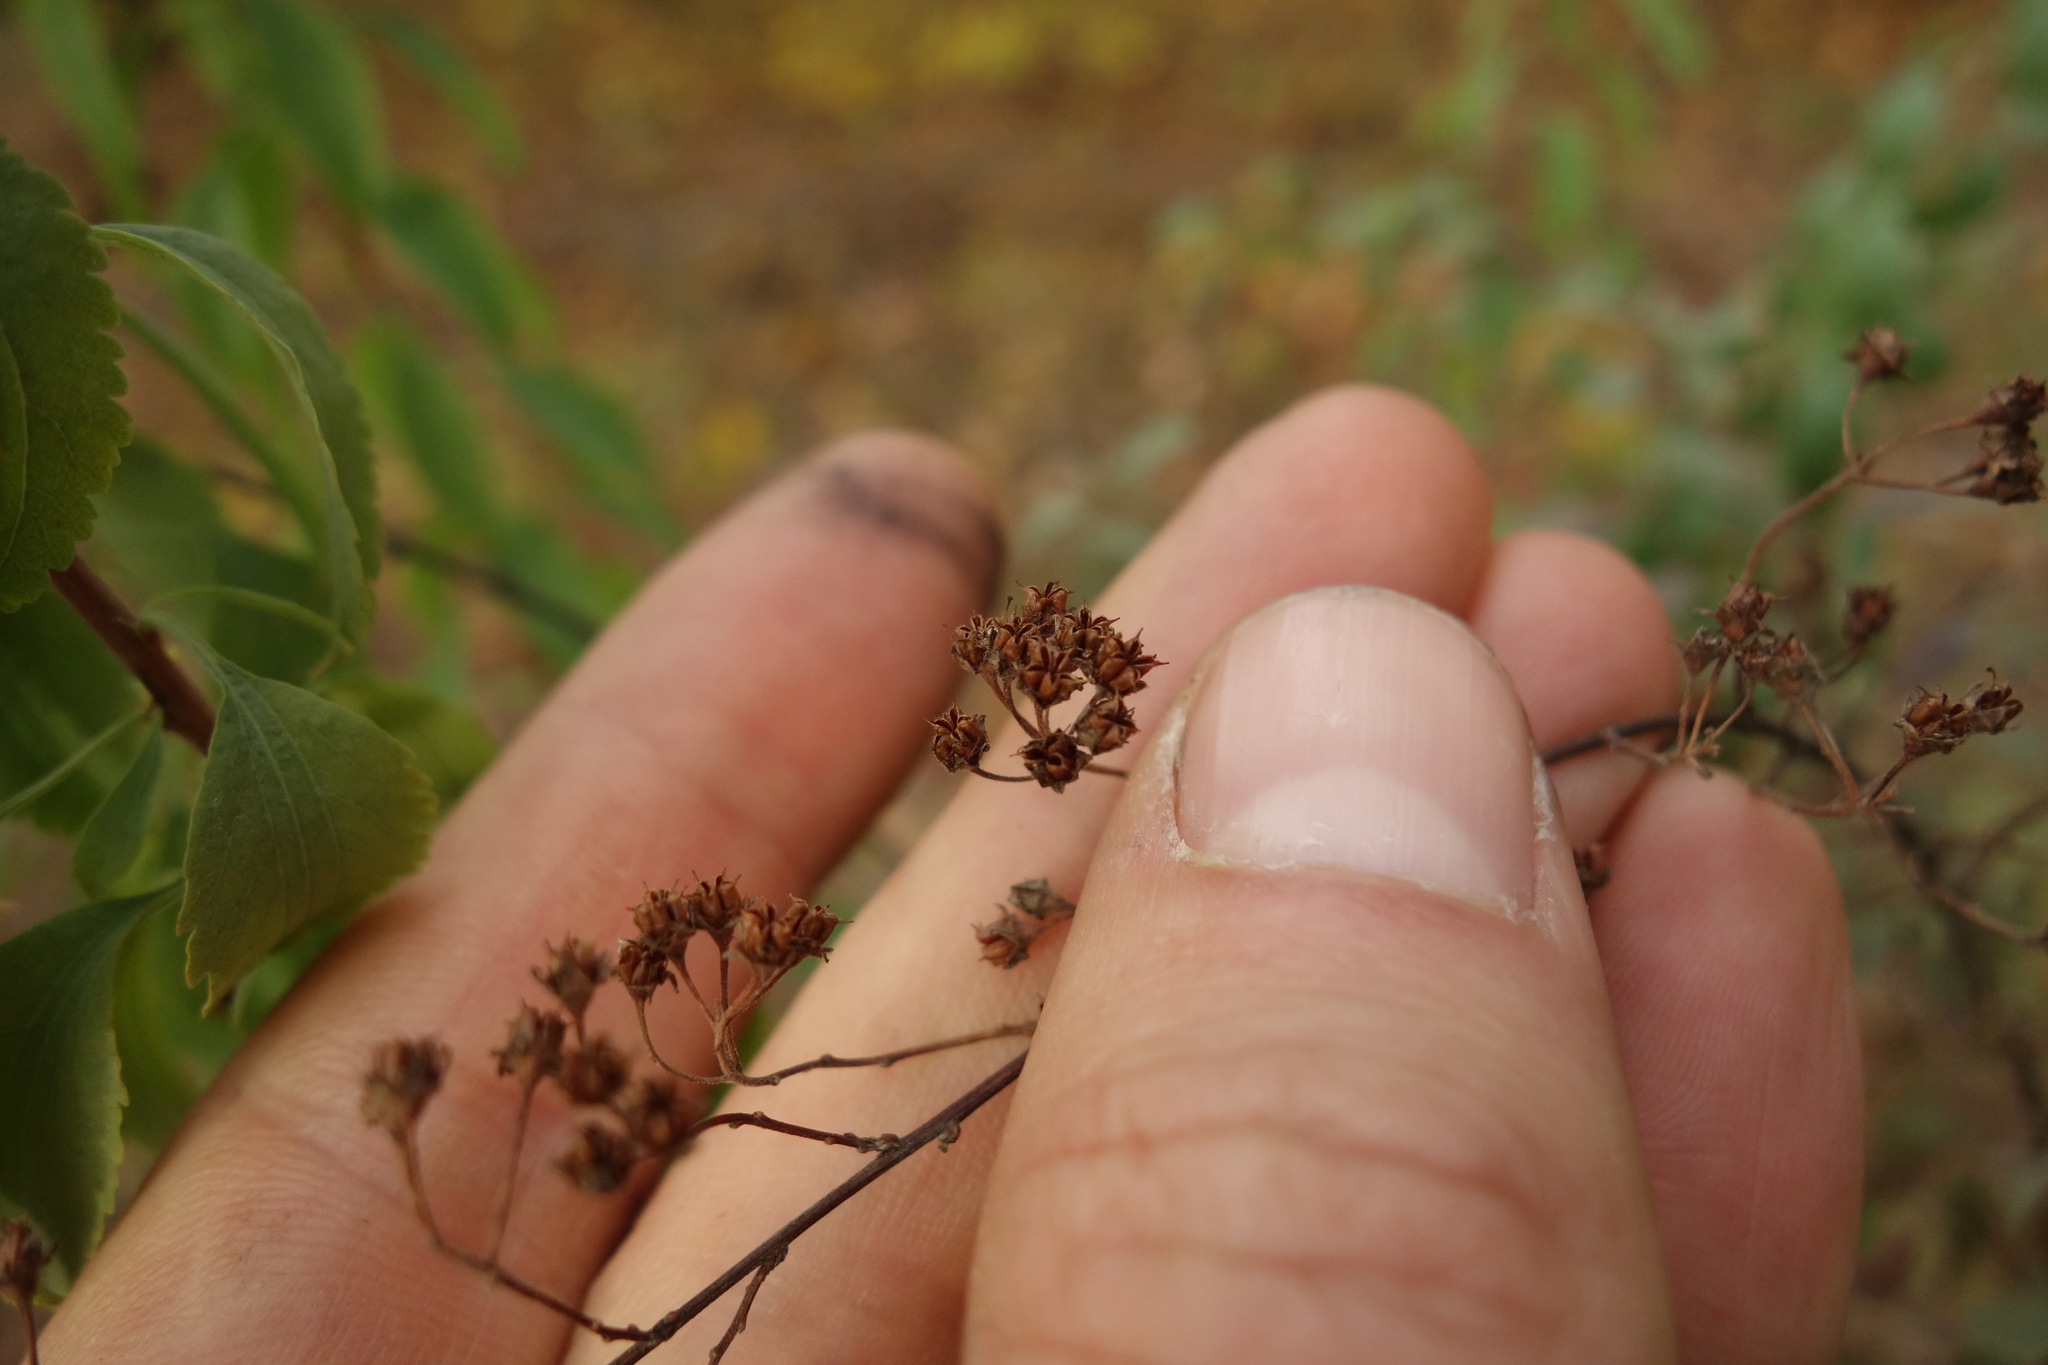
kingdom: Plantae
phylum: Tracheophyta
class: Magnoliopsida
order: Rosales
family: Rosaceae
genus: Spiraea
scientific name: Spiraea crenata
